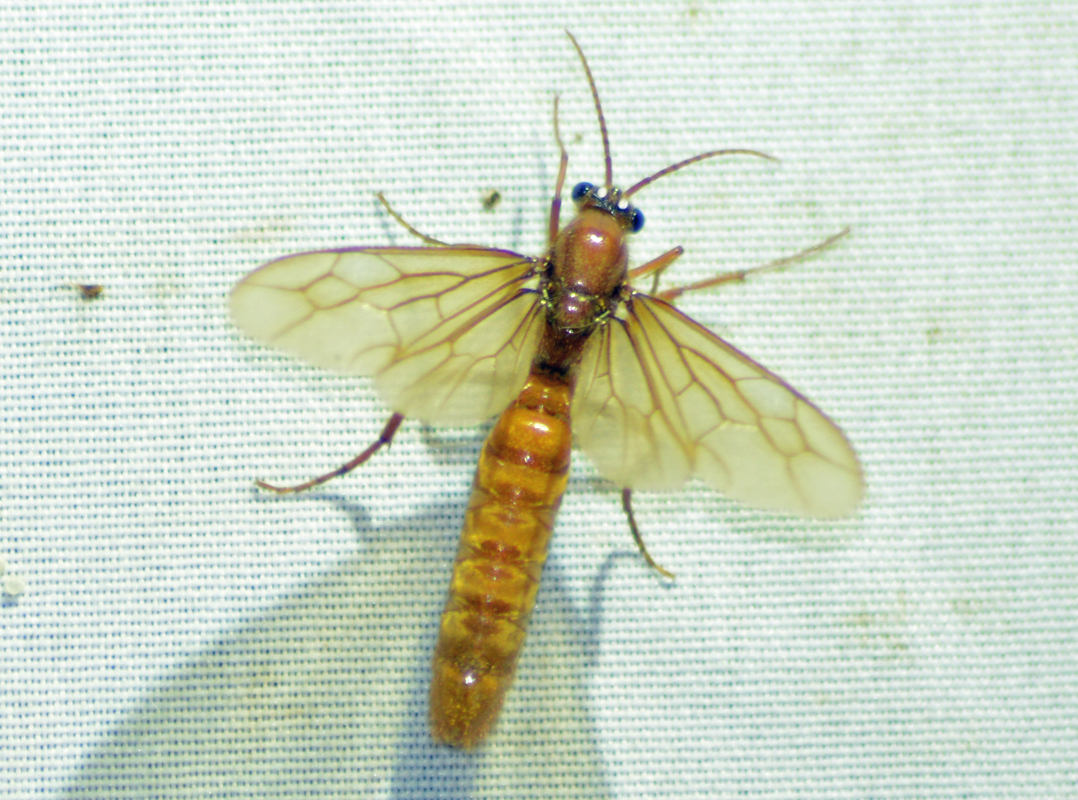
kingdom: Animalia
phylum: Arthropoda
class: Insecta
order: Hymenoptera
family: Formicidae
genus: Labidus
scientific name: Labidus coecus
